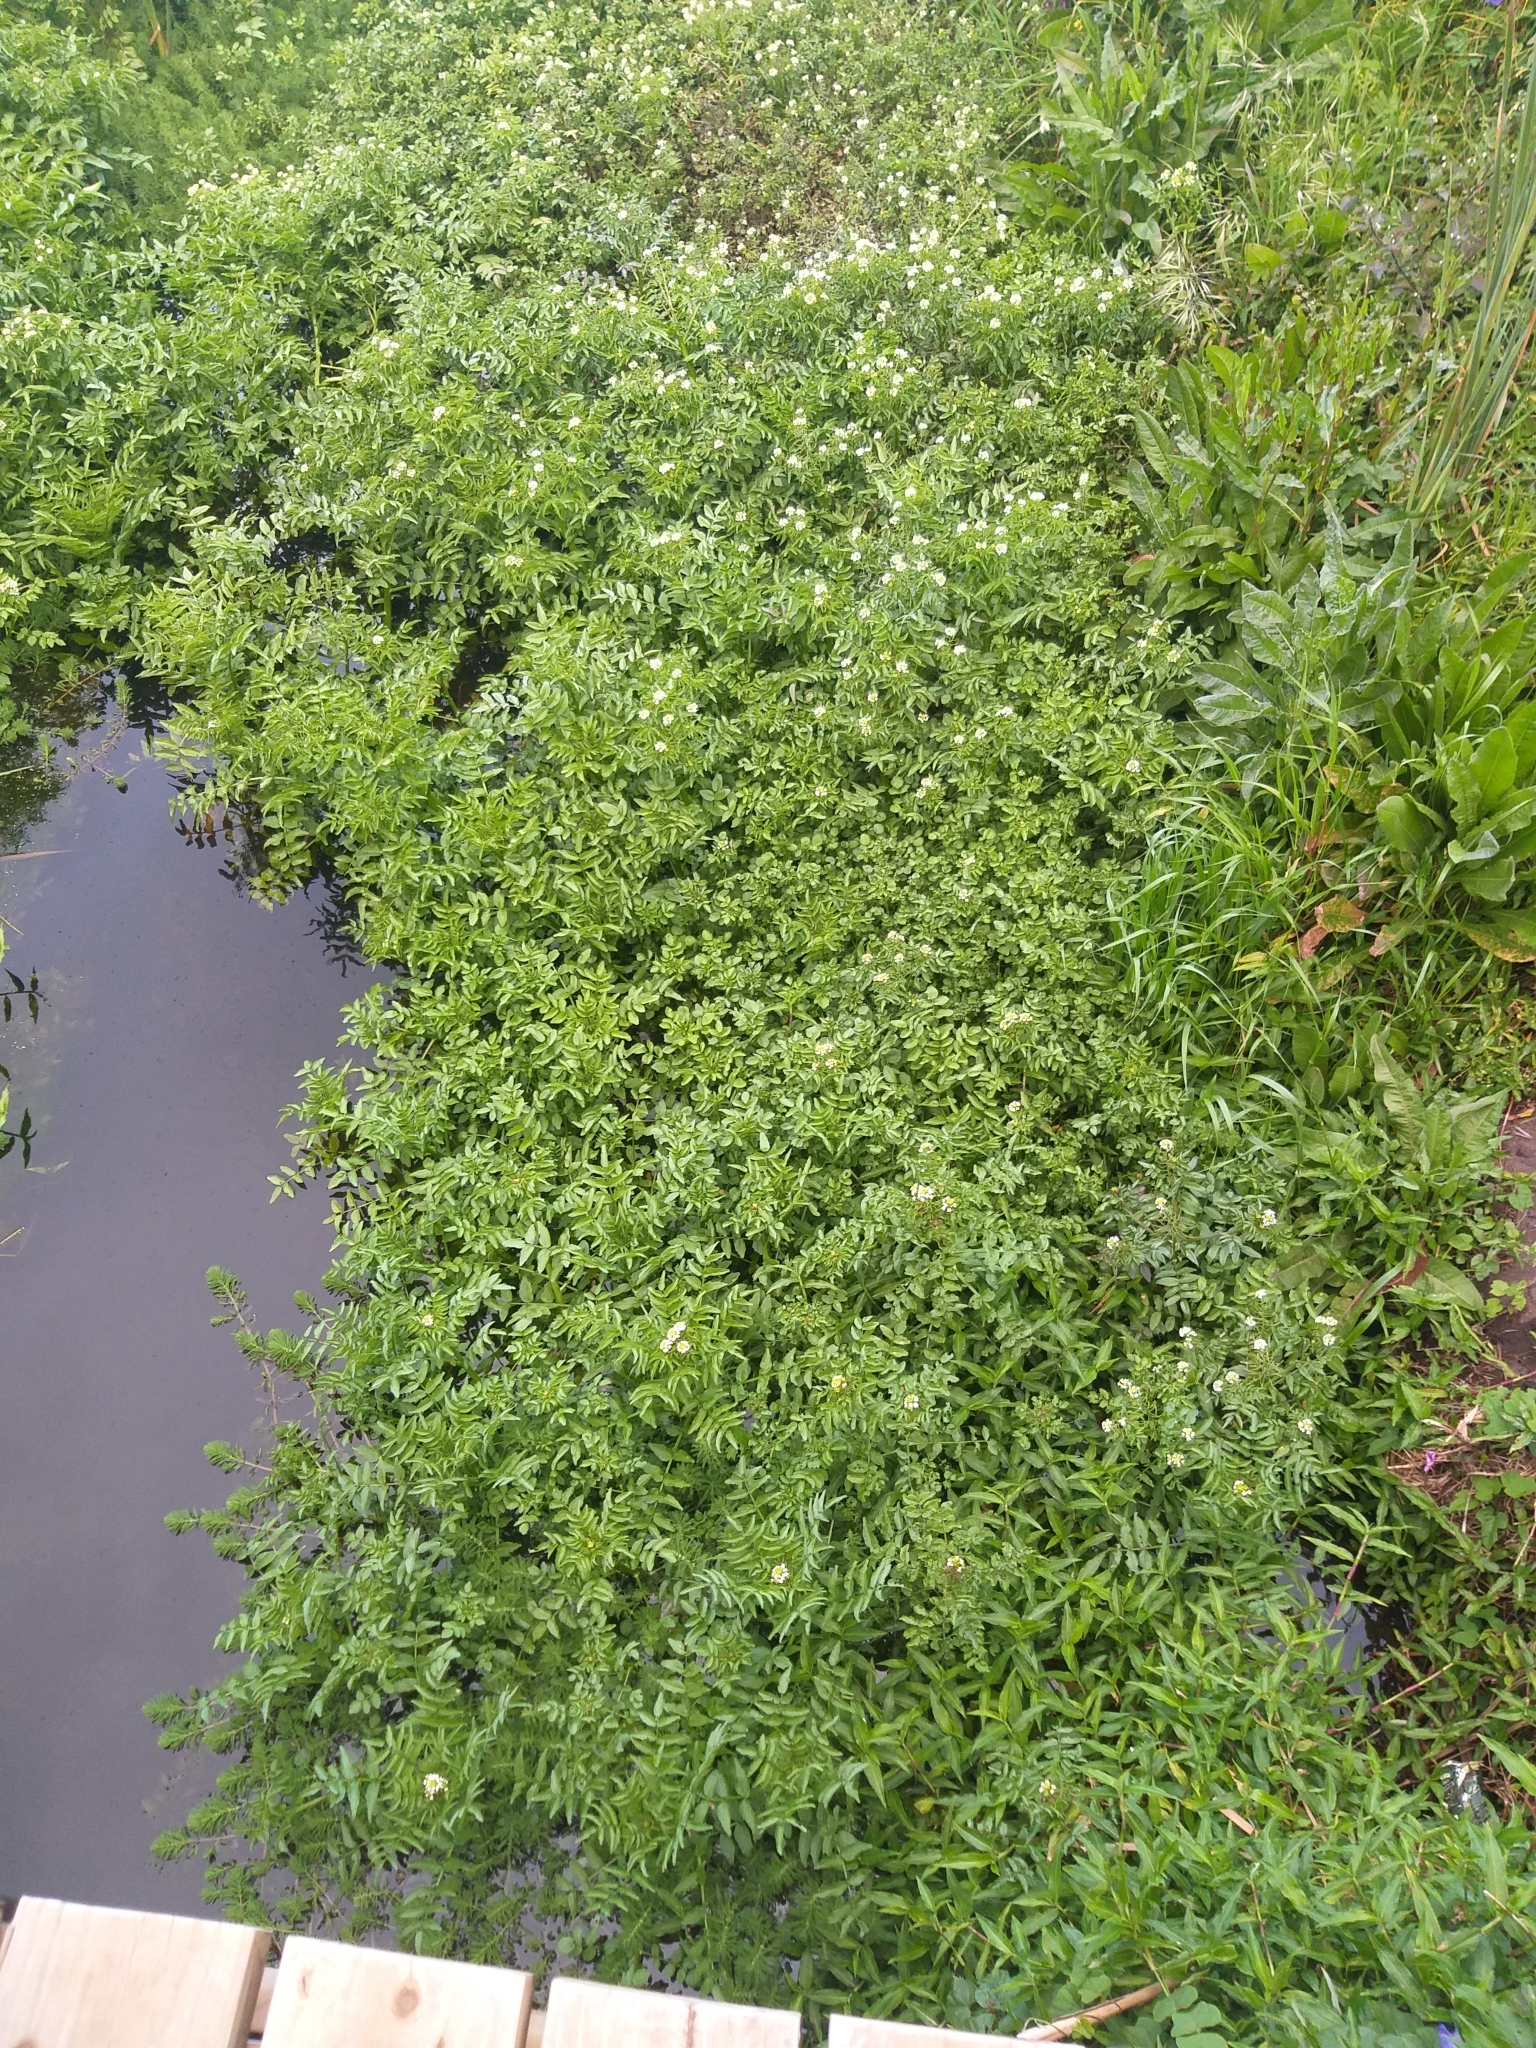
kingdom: Plantae
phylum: Tracheophyta
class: Magnoliopsida
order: Brassicales
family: Brassicaceae
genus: Nasturtium
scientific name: Nasturtium officinale
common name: Watercress
